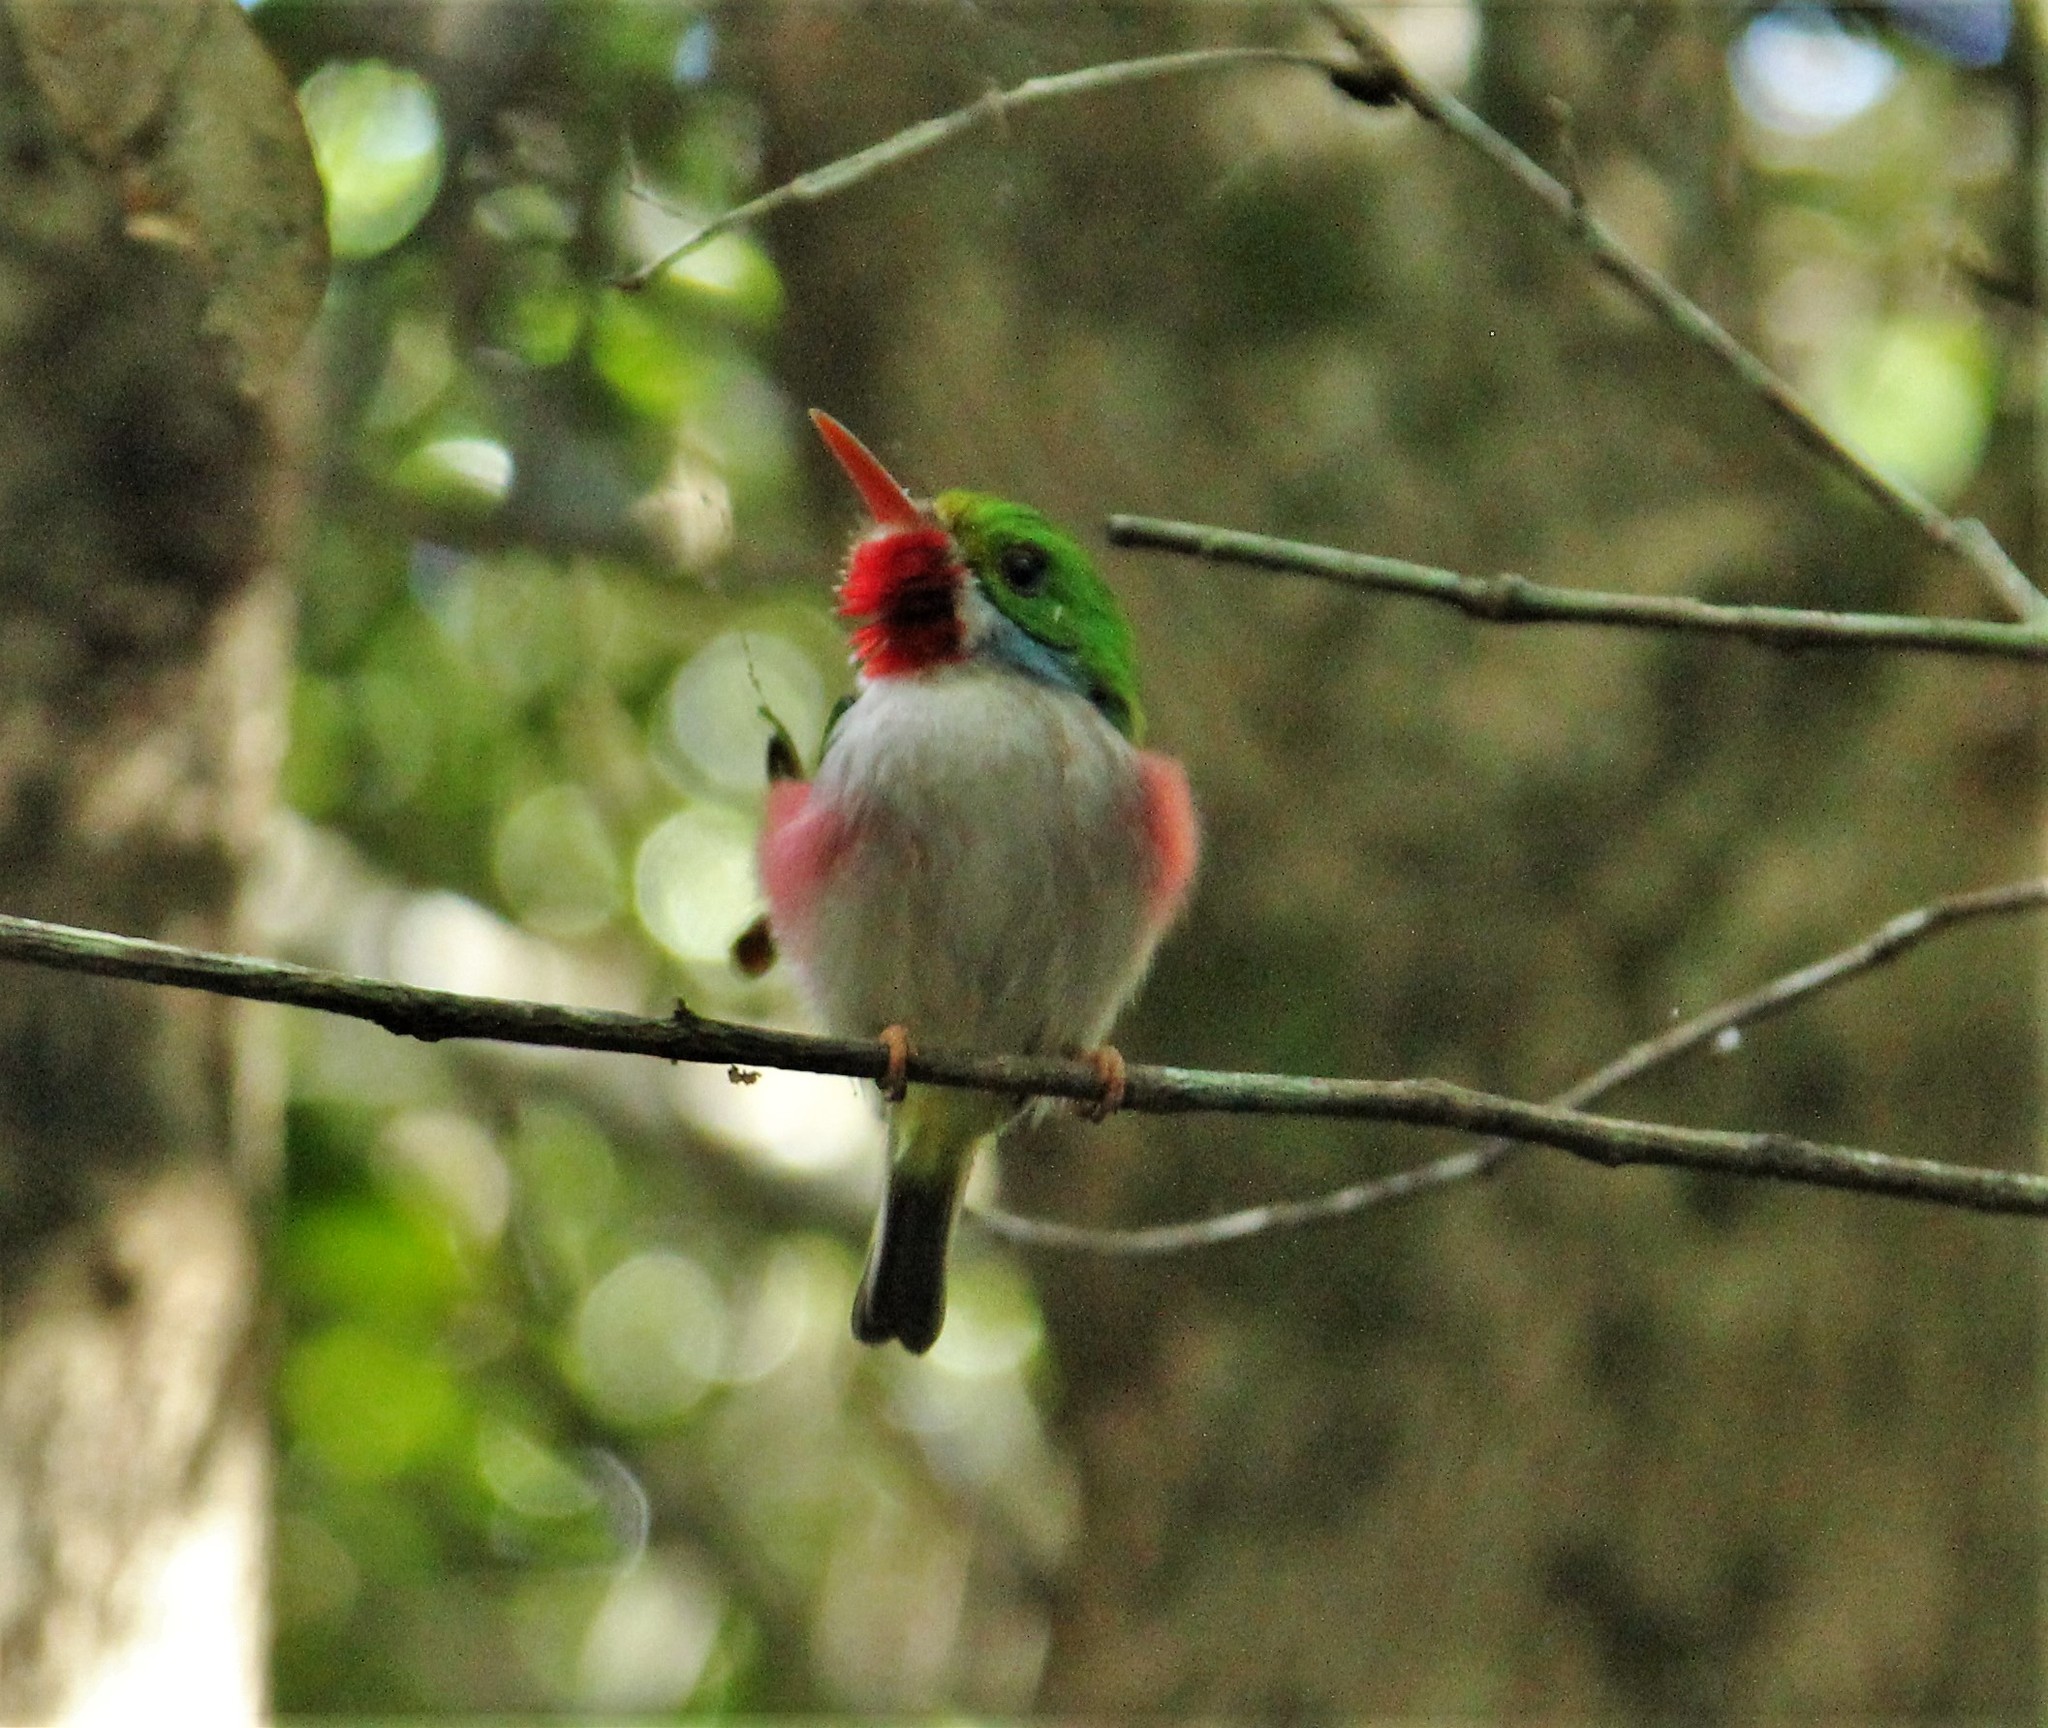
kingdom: Animalia
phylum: Chordata
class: Aves
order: Coraciiformes
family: Todidae
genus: Todus
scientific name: Todus multicolor
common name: Cuban tody
